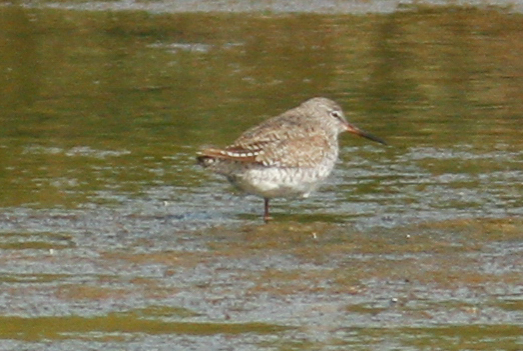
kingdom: Animalia
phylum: Chordata
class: Aves
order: Charadriiformes
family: Scolopacidae
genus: Tringa
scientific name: Tringa totanus
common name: Common redshank
